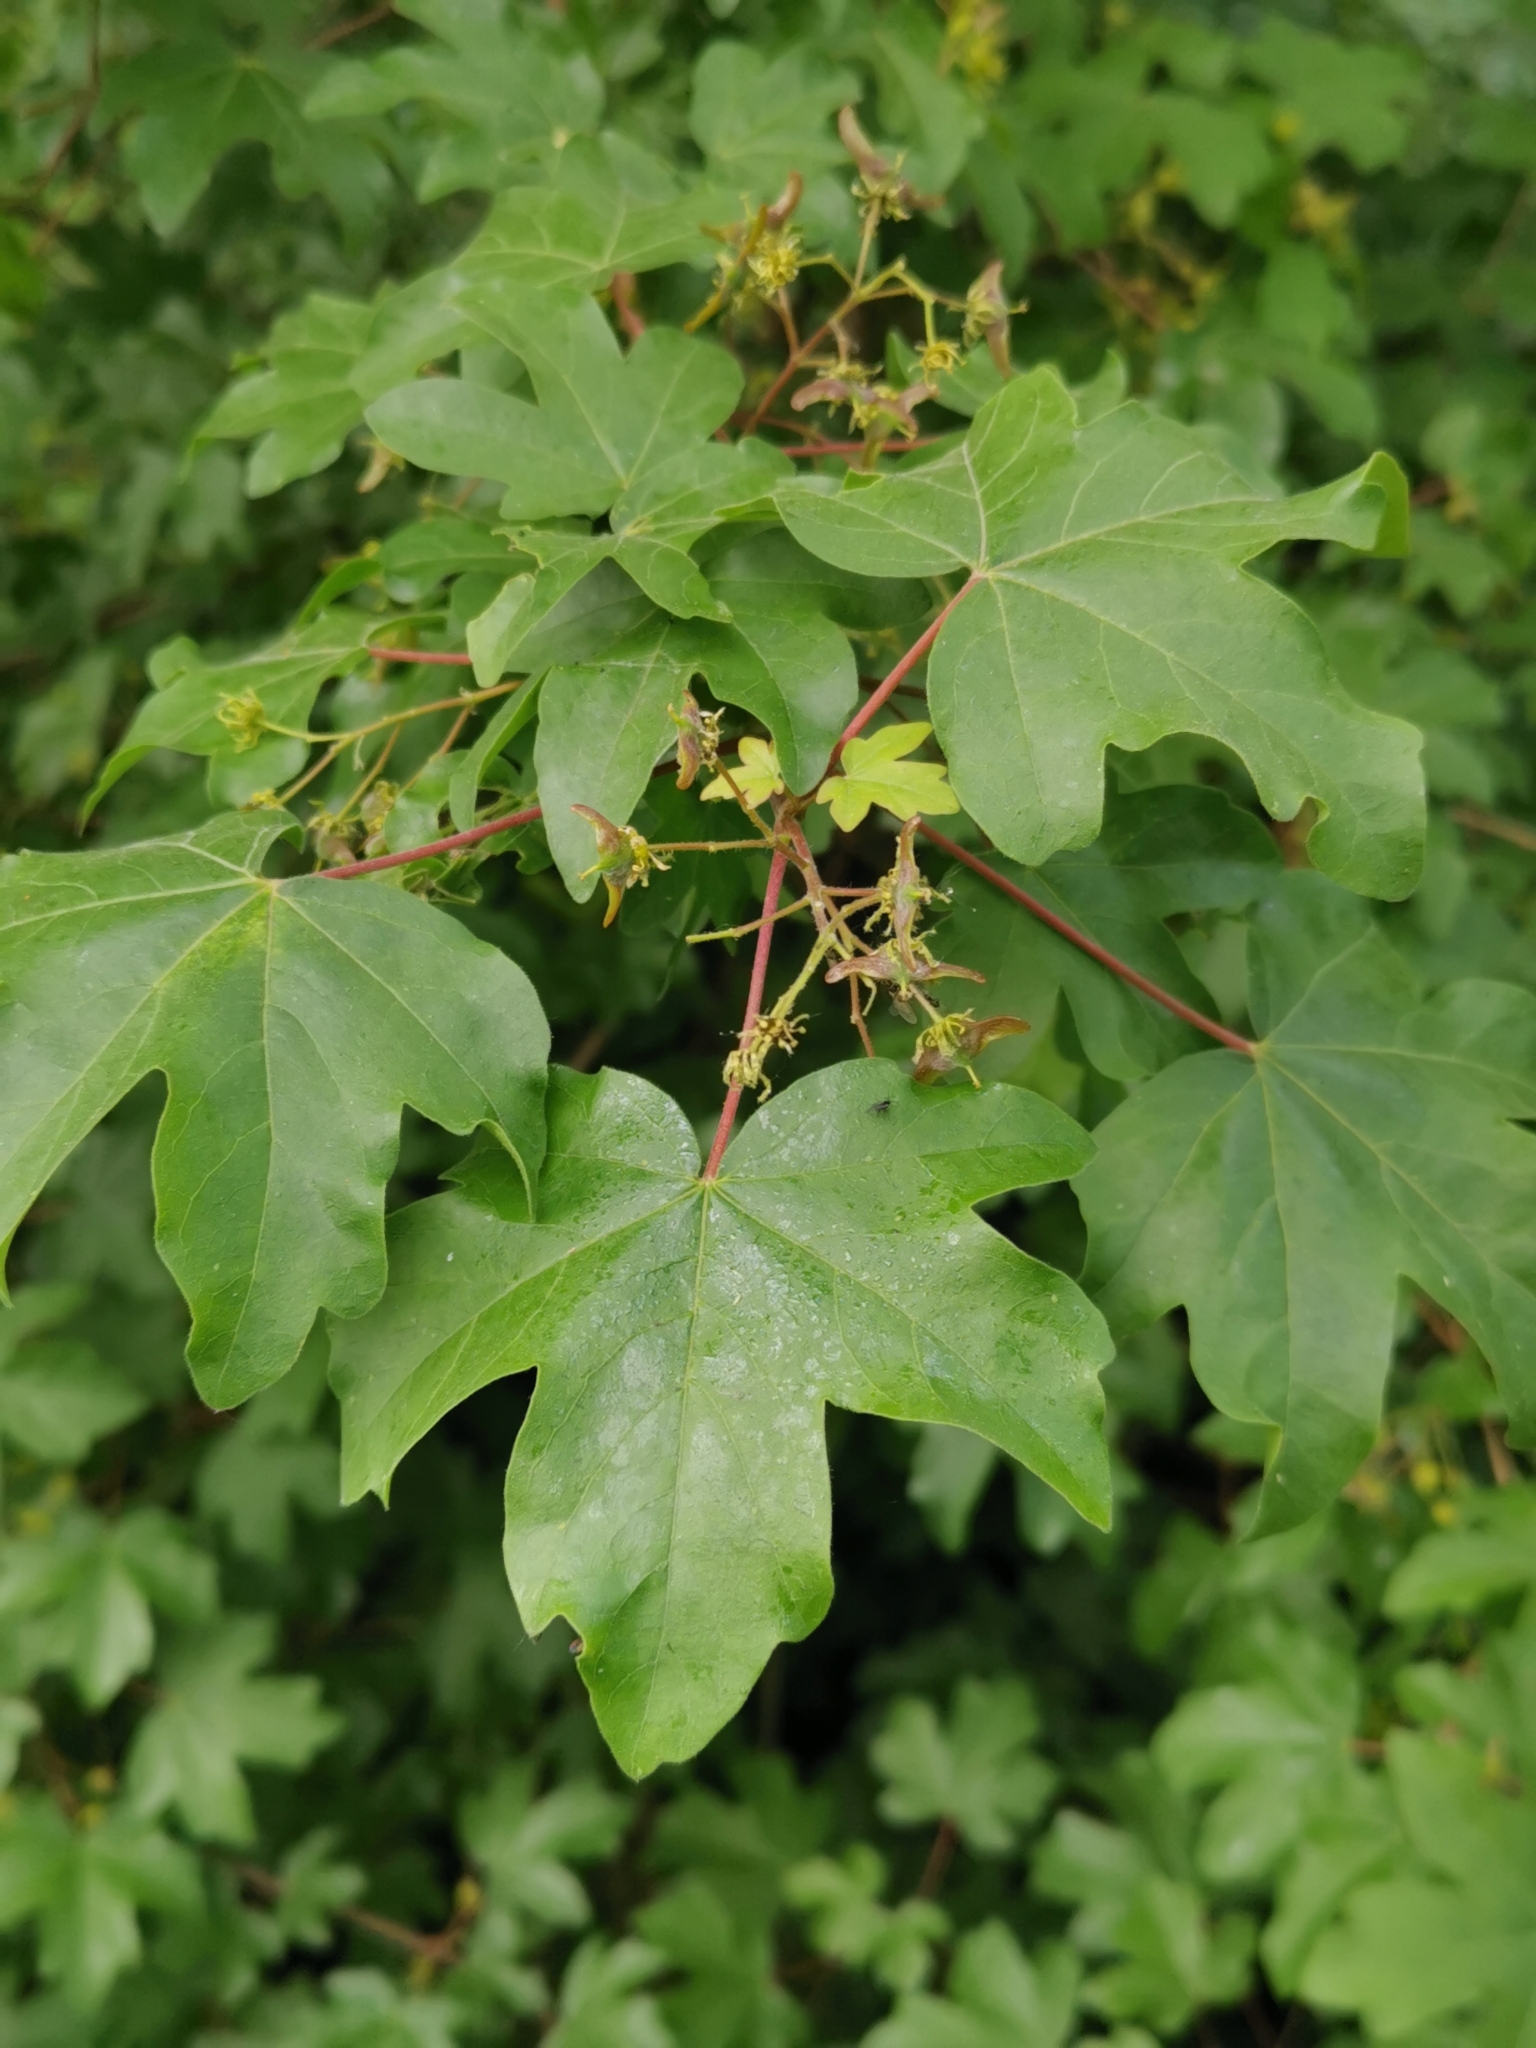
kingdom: Plantae
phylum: Tracheophyta
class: Magnoliopsida
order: Sapindales
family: Sapindaceae
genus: Acer
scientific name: Acer campestre
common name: Field maple
